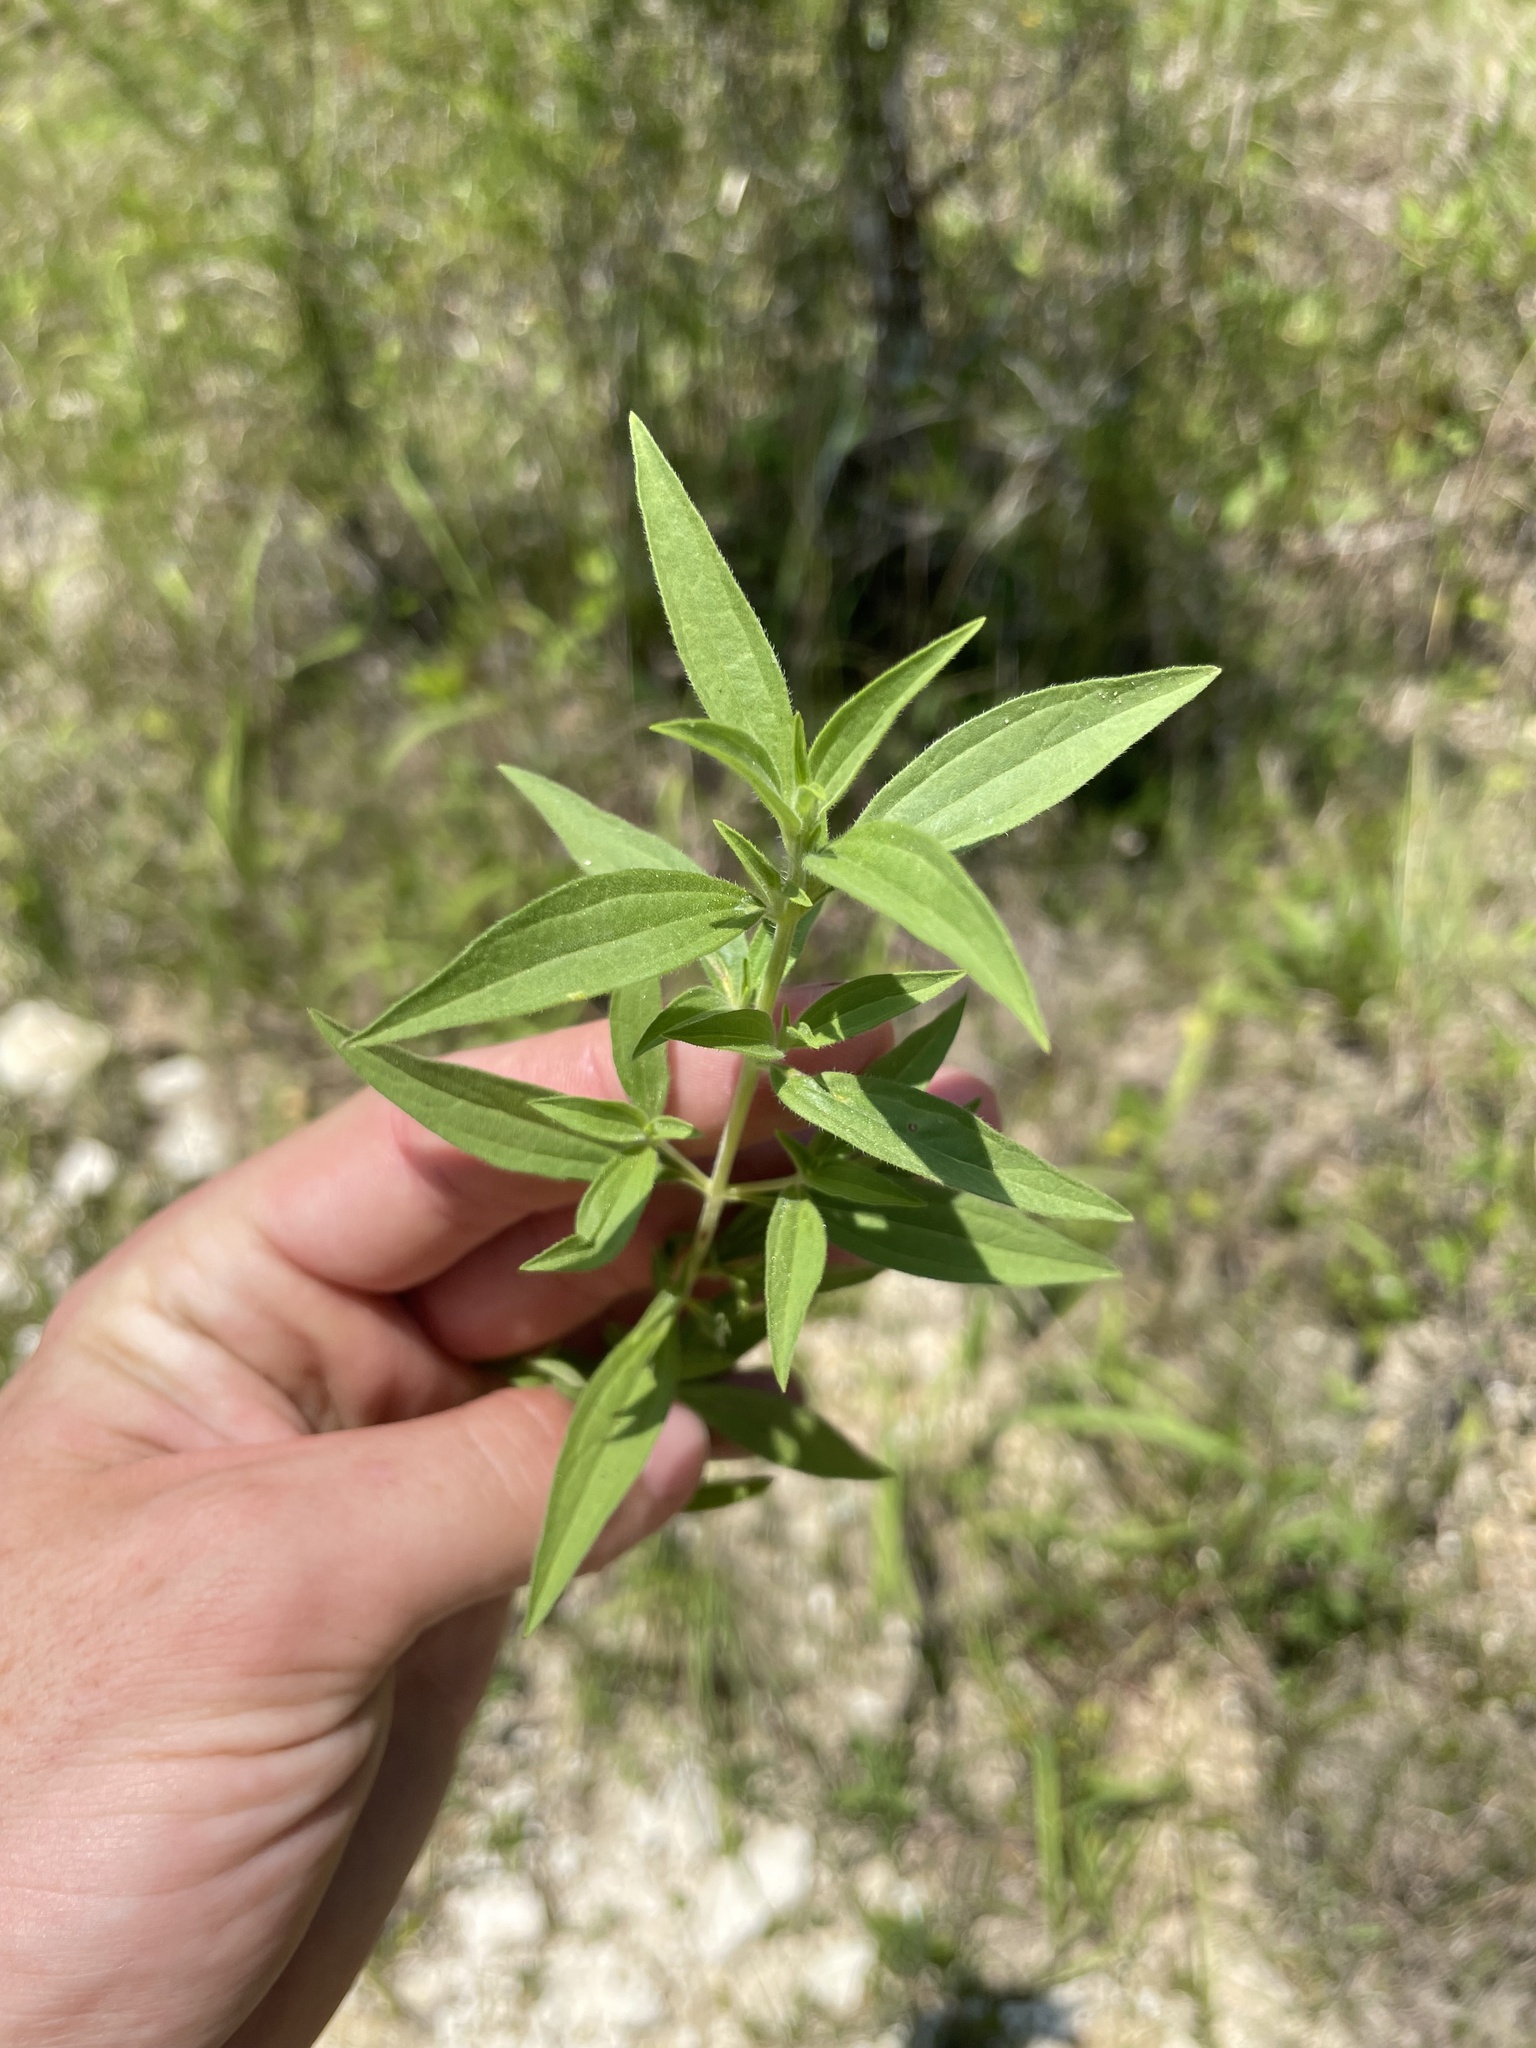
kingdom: Plantae
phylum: Tracheophyta
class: Magnoliopsida
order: Lamiales
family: Lamiaceae
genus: Trichostema
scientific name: Trichostema brachiatum
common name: False pennyroyal
